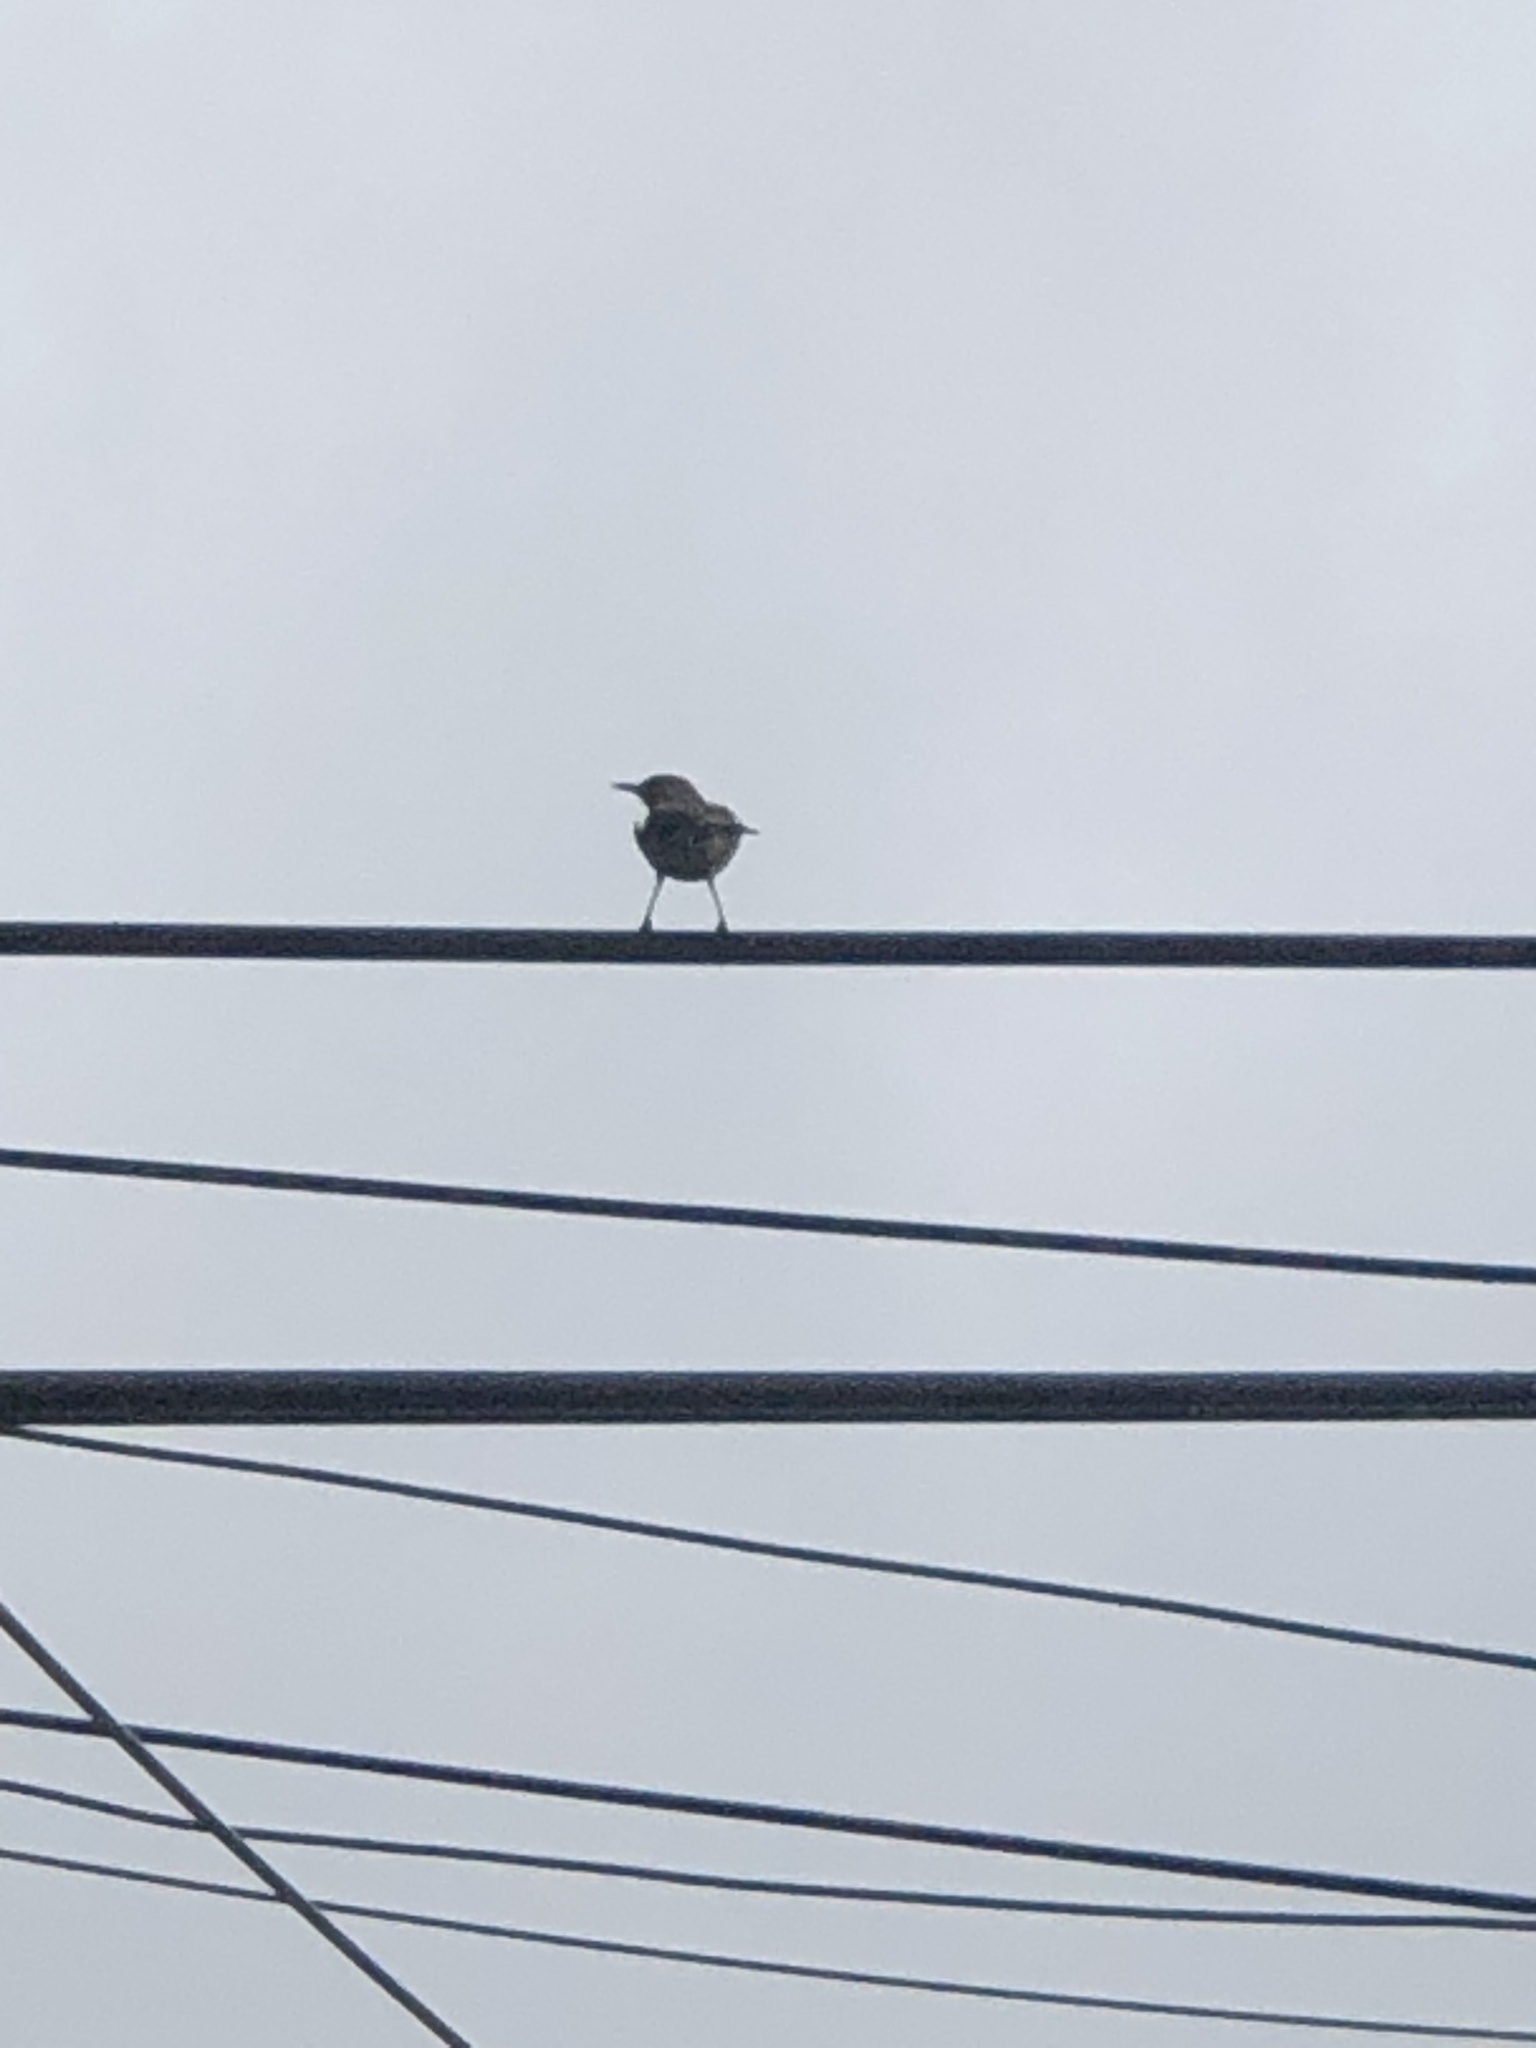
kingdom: Animalia
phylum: Chordata
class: Aves
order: Passeriformes
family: Mimidae
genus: Mimus
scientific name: Mimus polyglottos
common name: Northern mockingbird
